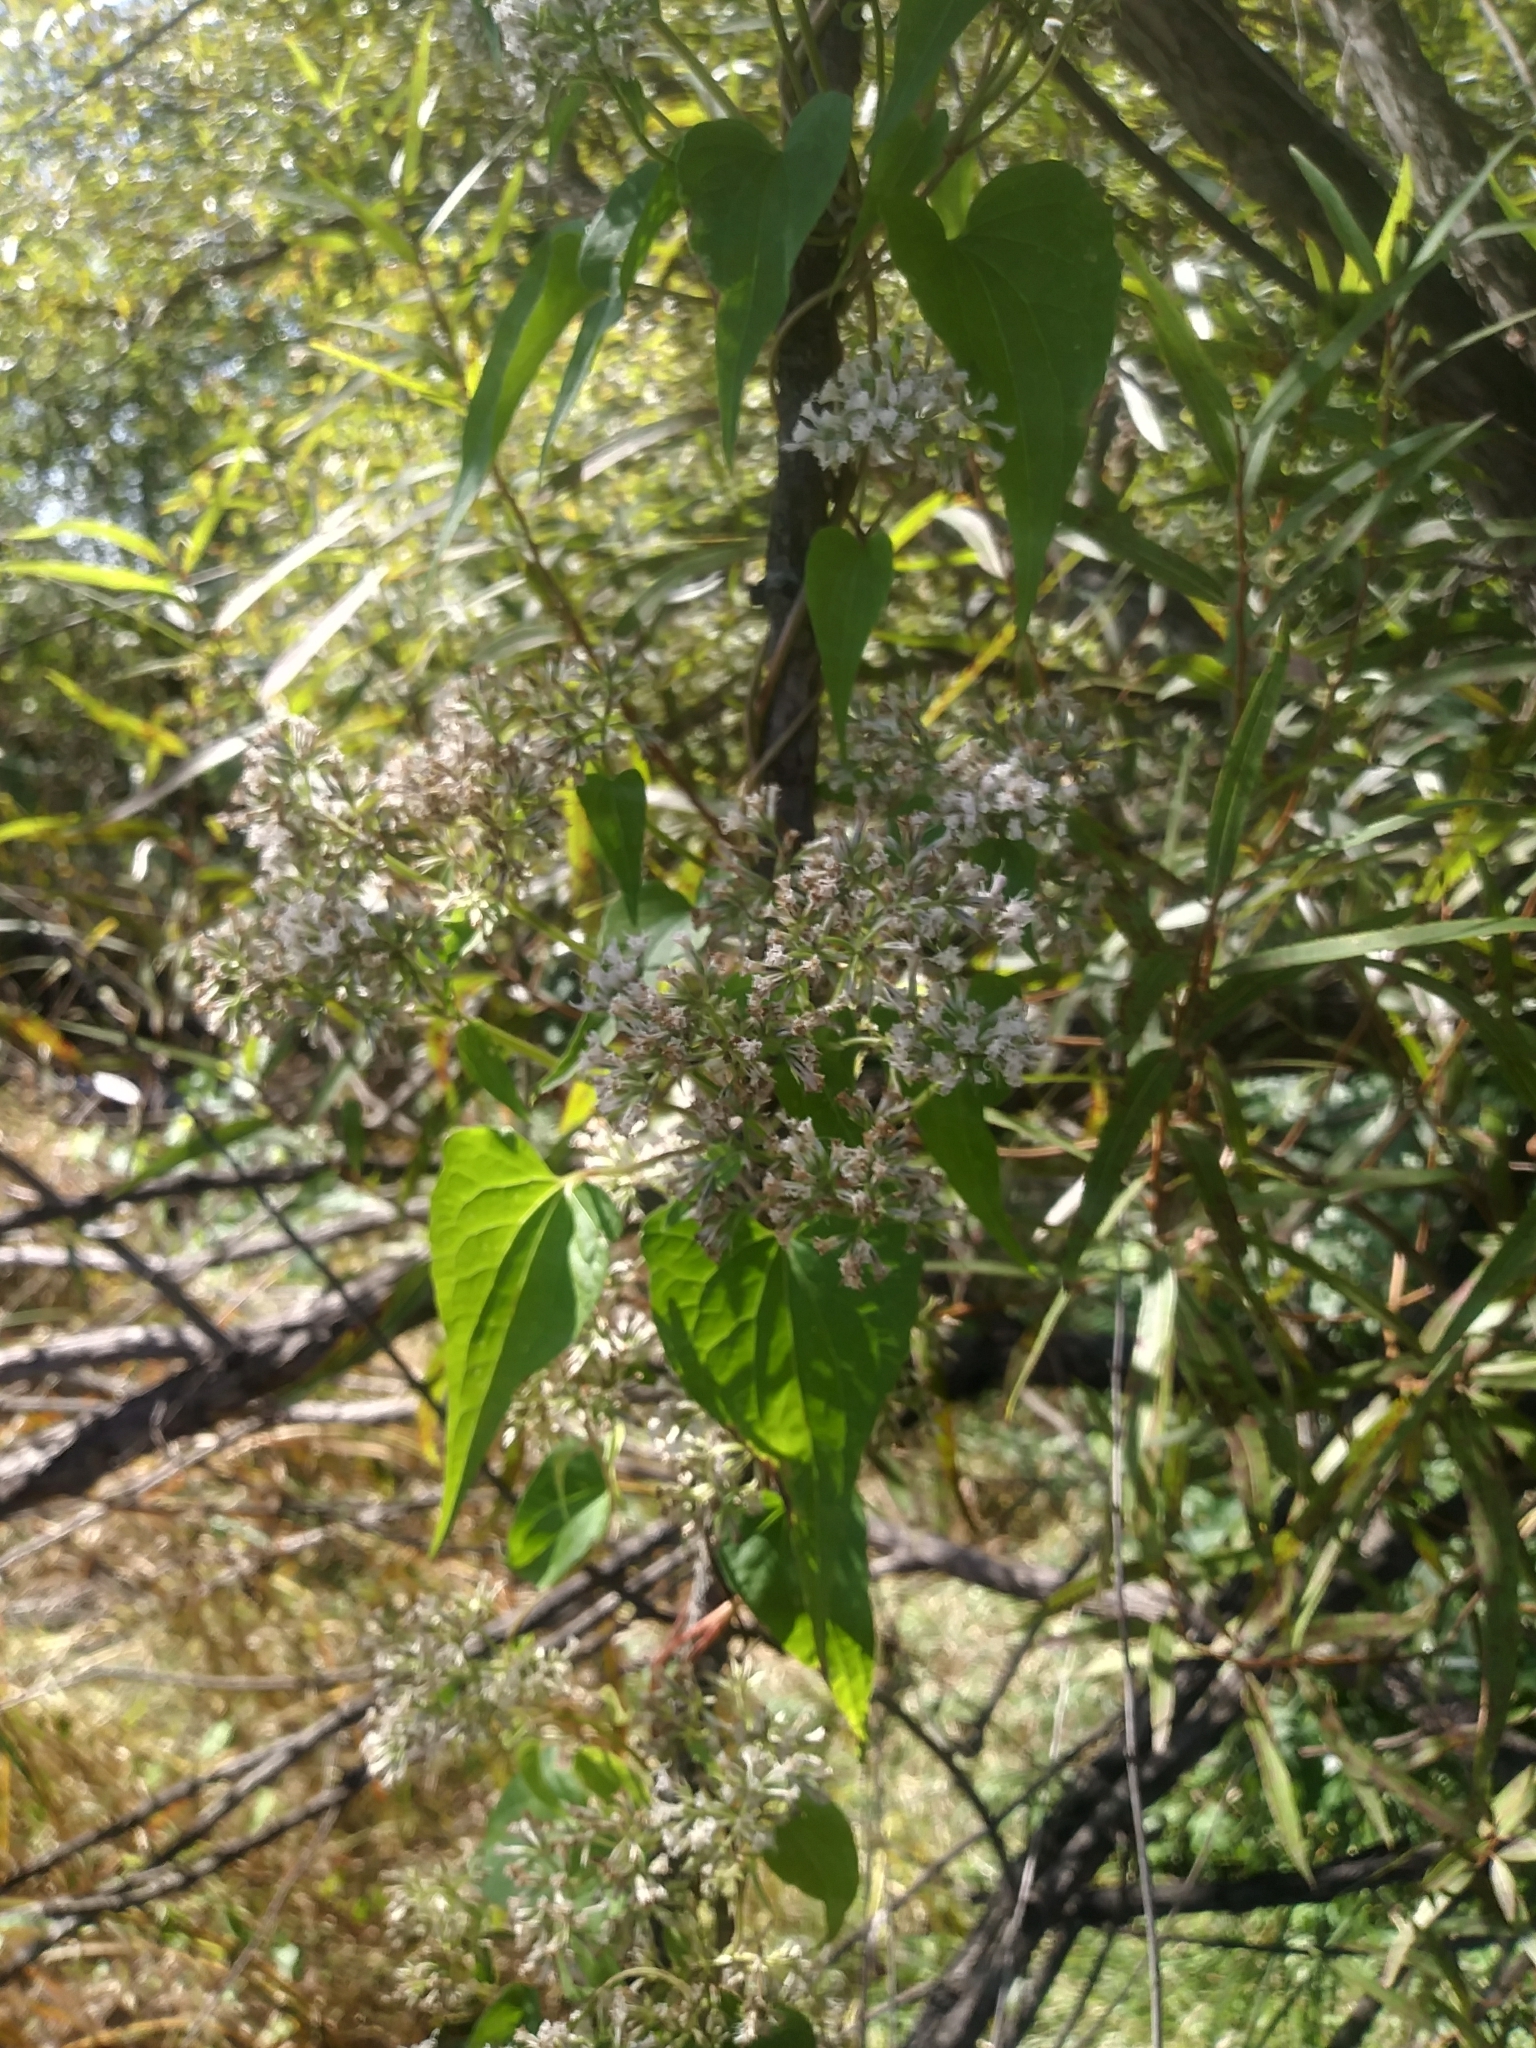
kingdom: Plantae
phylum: Tracheophyta
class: Magnoliopsida
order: Asterales
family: Asteraceae
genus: Mikania
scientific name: Mikania scandens
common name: Climbing hempvine
